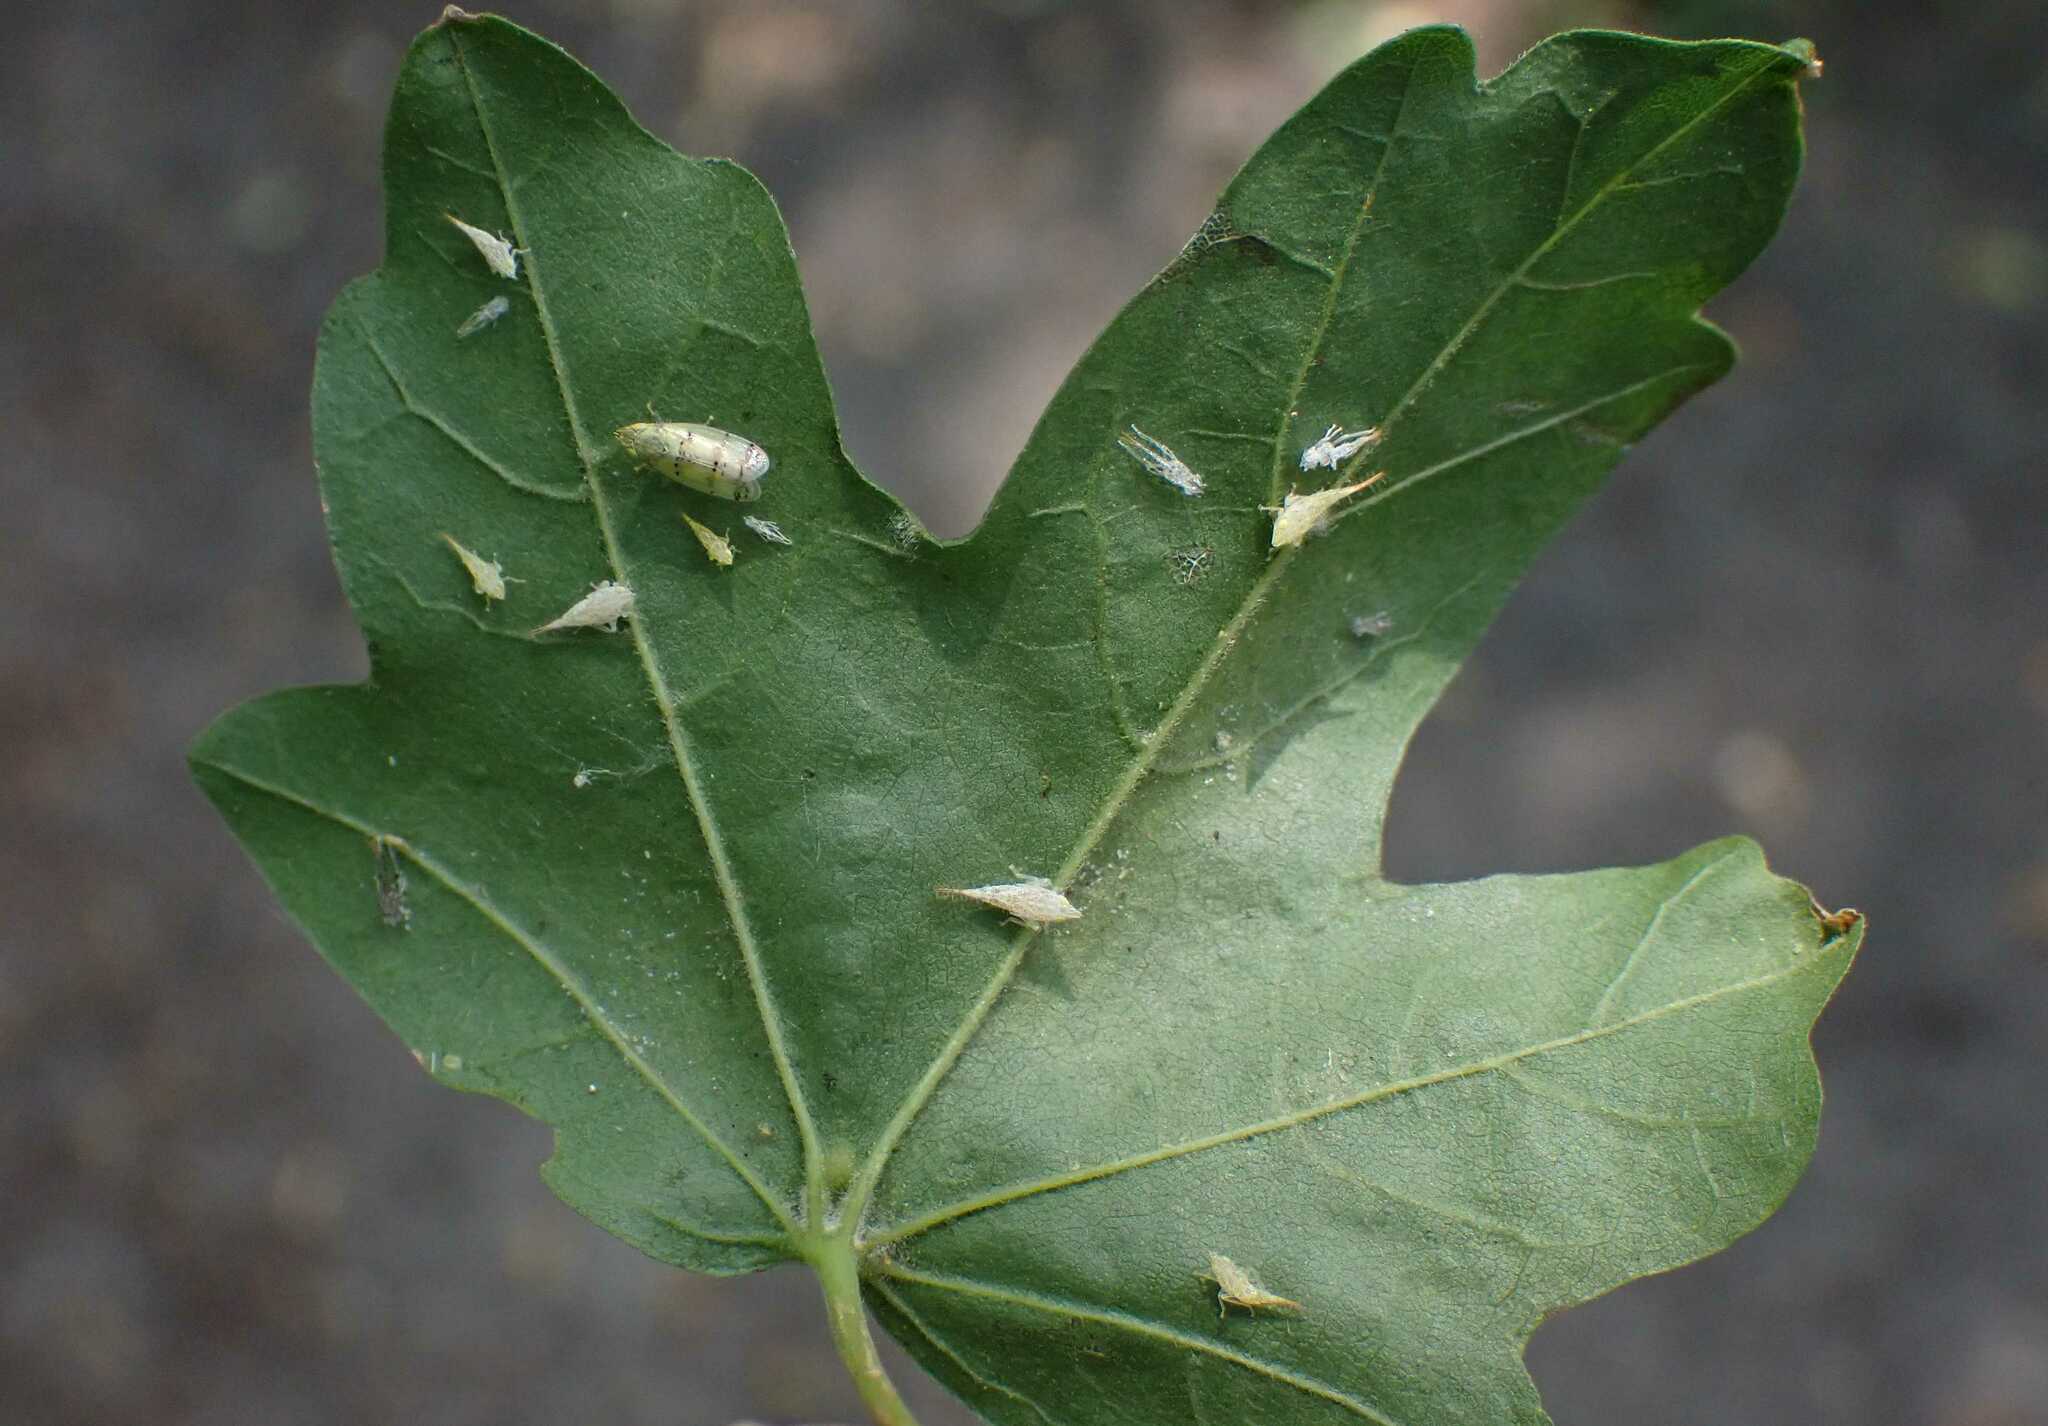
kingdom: Animalia
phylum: Arthropoda
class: Insecta
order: Hemiptera
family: Cicadellidae
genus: Japananus
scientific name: Japananus hyalinus
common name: The japanese maple leafhopper
